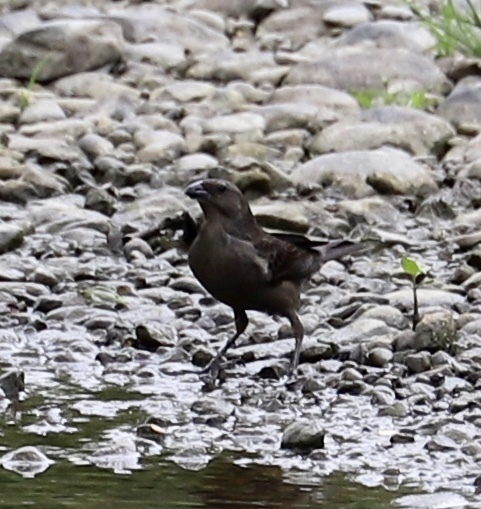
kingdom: Animalia
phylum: Chordata
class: Aves
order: Passeriformes
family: Icteridae
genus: Molothrus
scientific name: Molothrus bonariensis
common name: Shiny cowbird
